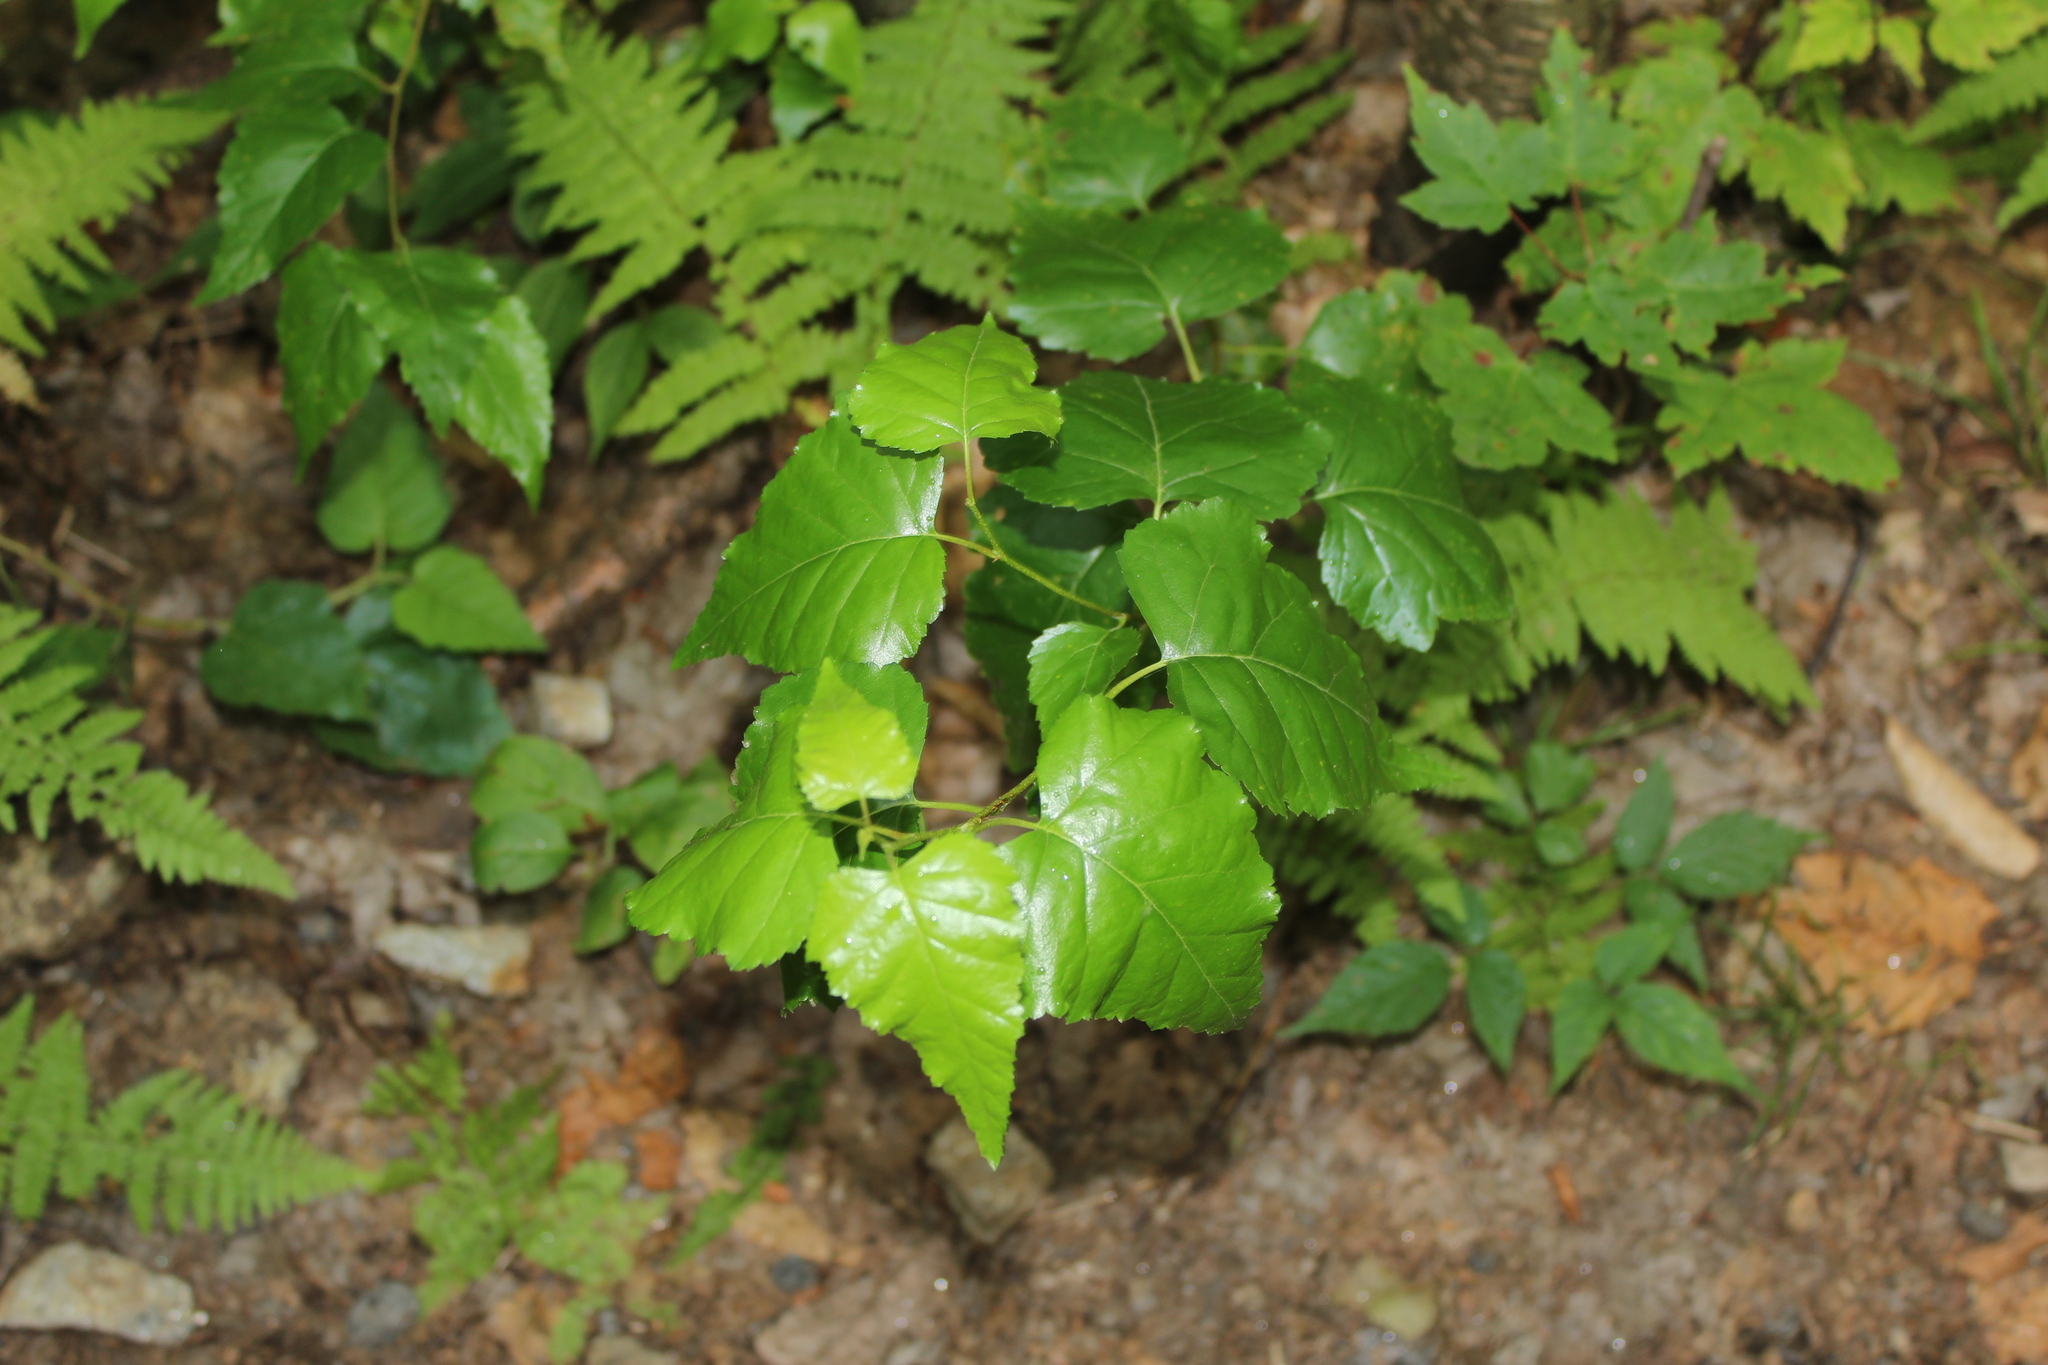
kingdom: Plantae
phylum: Tracheophyta
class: Magnoliopsida
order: Fagales
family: Betulaceae
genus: Betula
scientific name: Betula populifolia
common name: Fire birch
